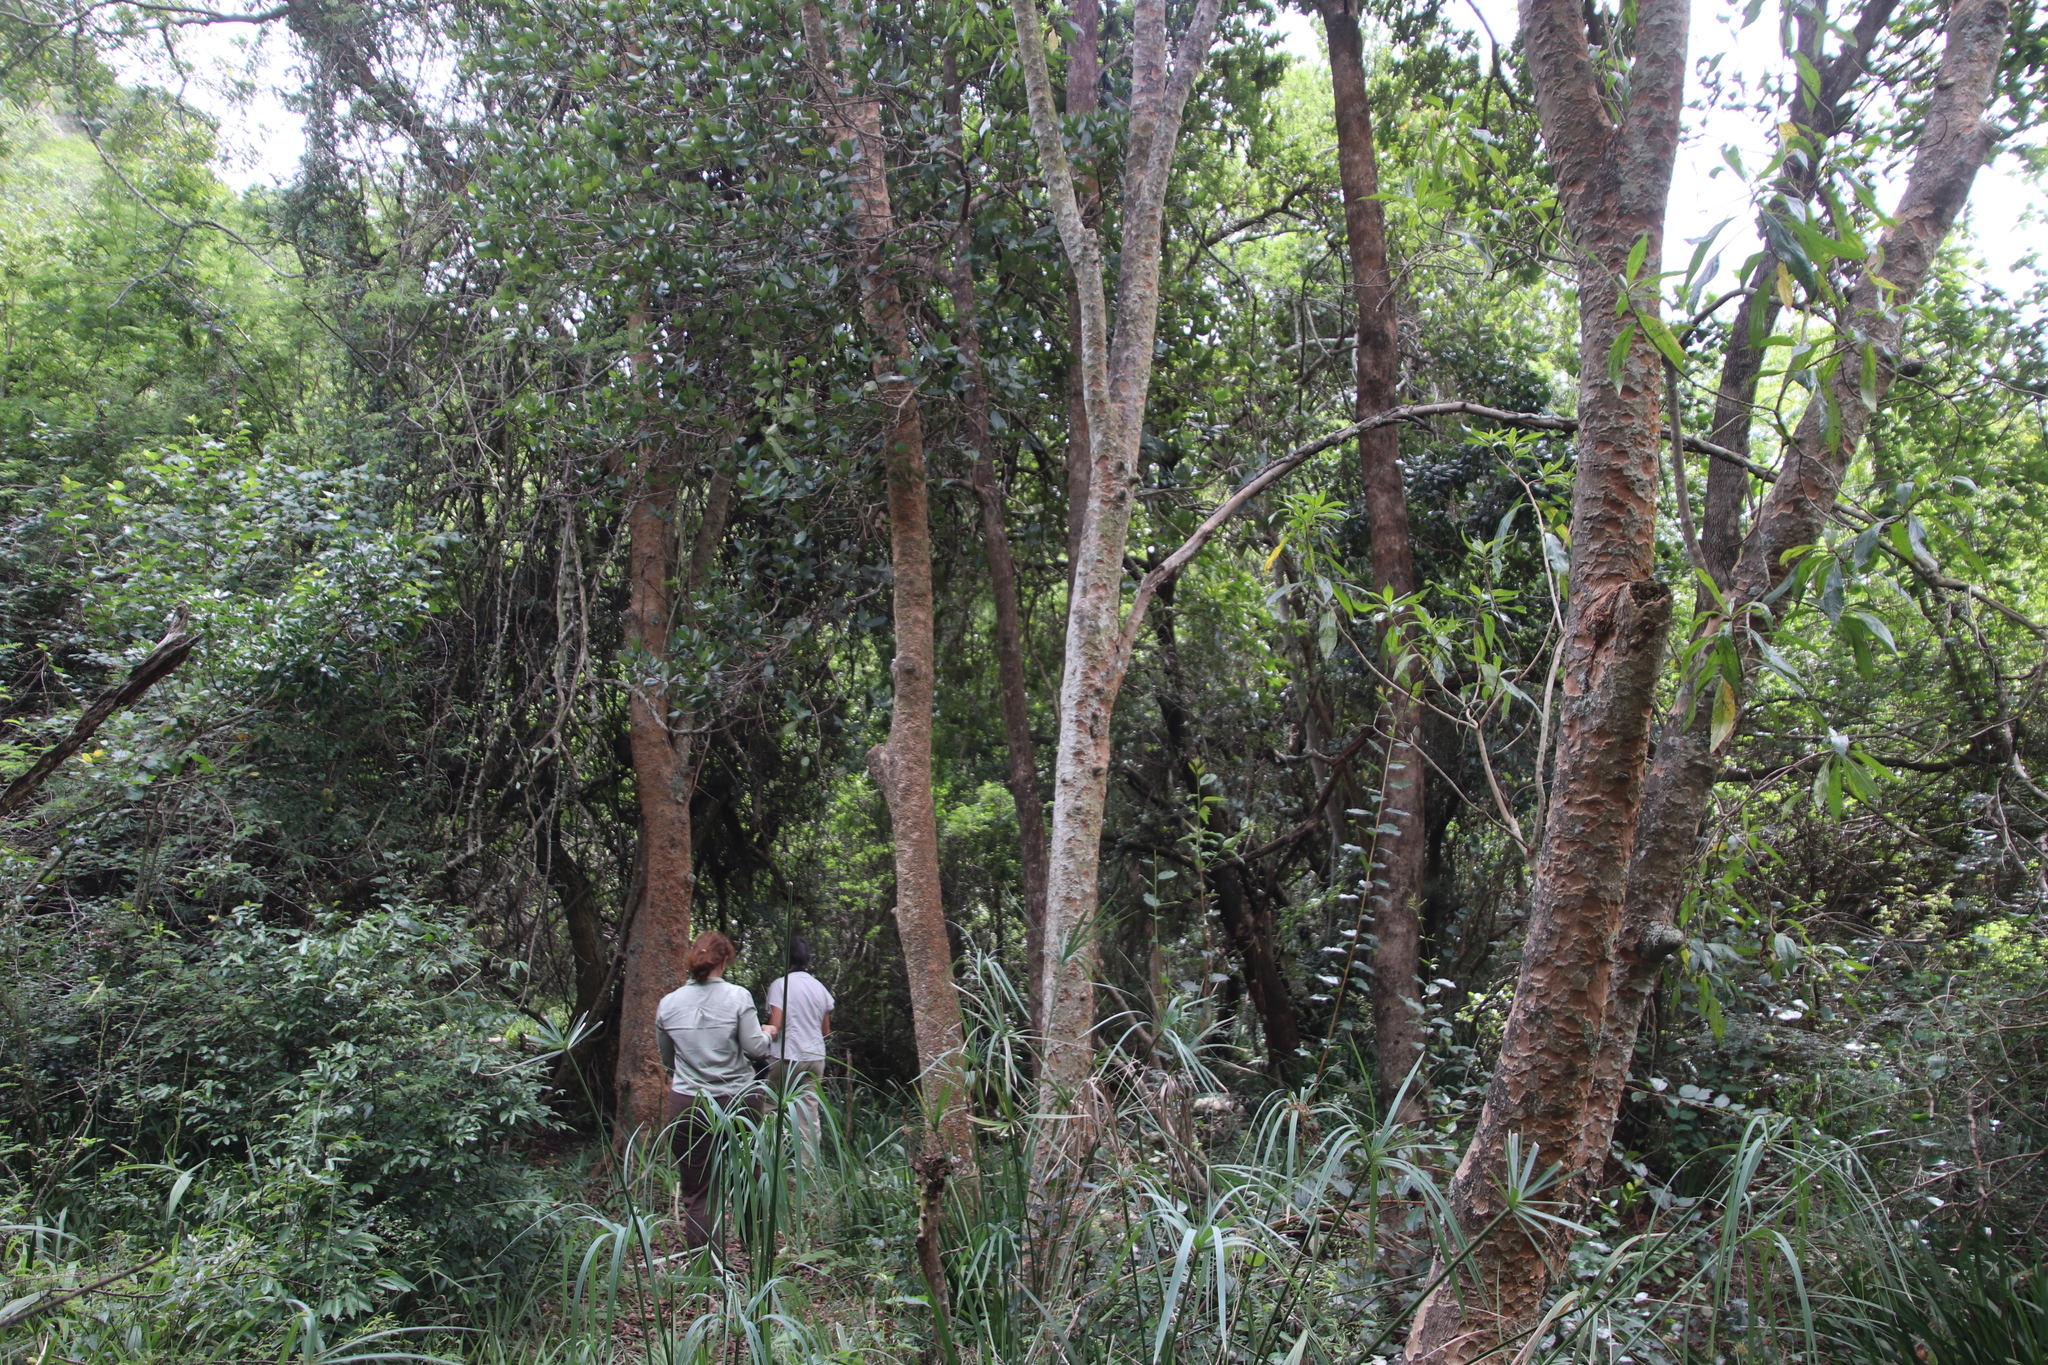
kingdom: Plantae
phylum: Tracheophyta
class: Magnoliopsida
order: Myrtales
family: Myrtaceae
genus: Heteropyxis
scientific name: Heteropyxis canescens
